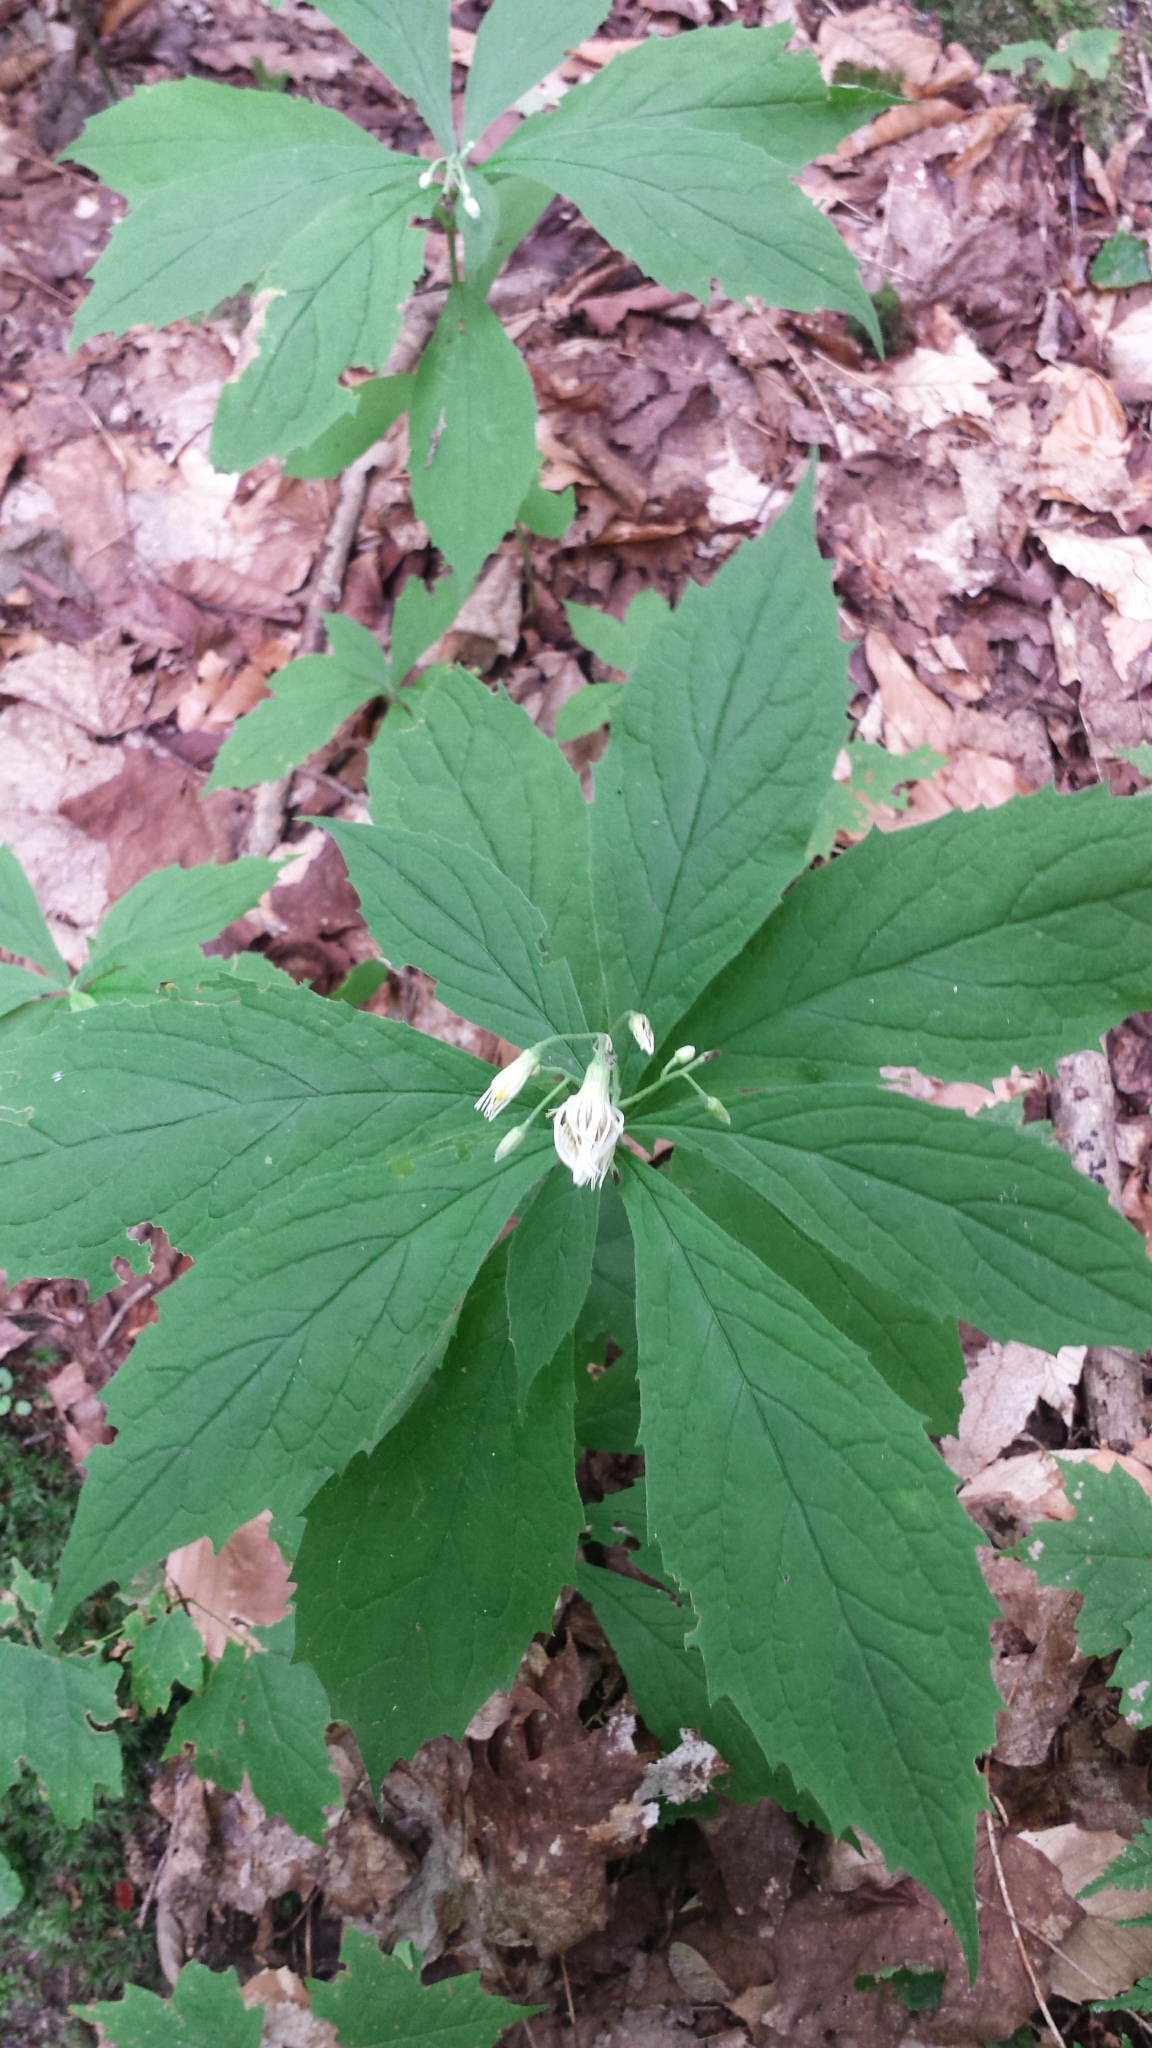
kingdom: Plantae
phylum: Tracheophyta
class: Magnoliopsida
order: Asterales
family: Asteraceae
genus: Oclemena
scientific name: Oclemena acuminata
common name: Mountain aster
